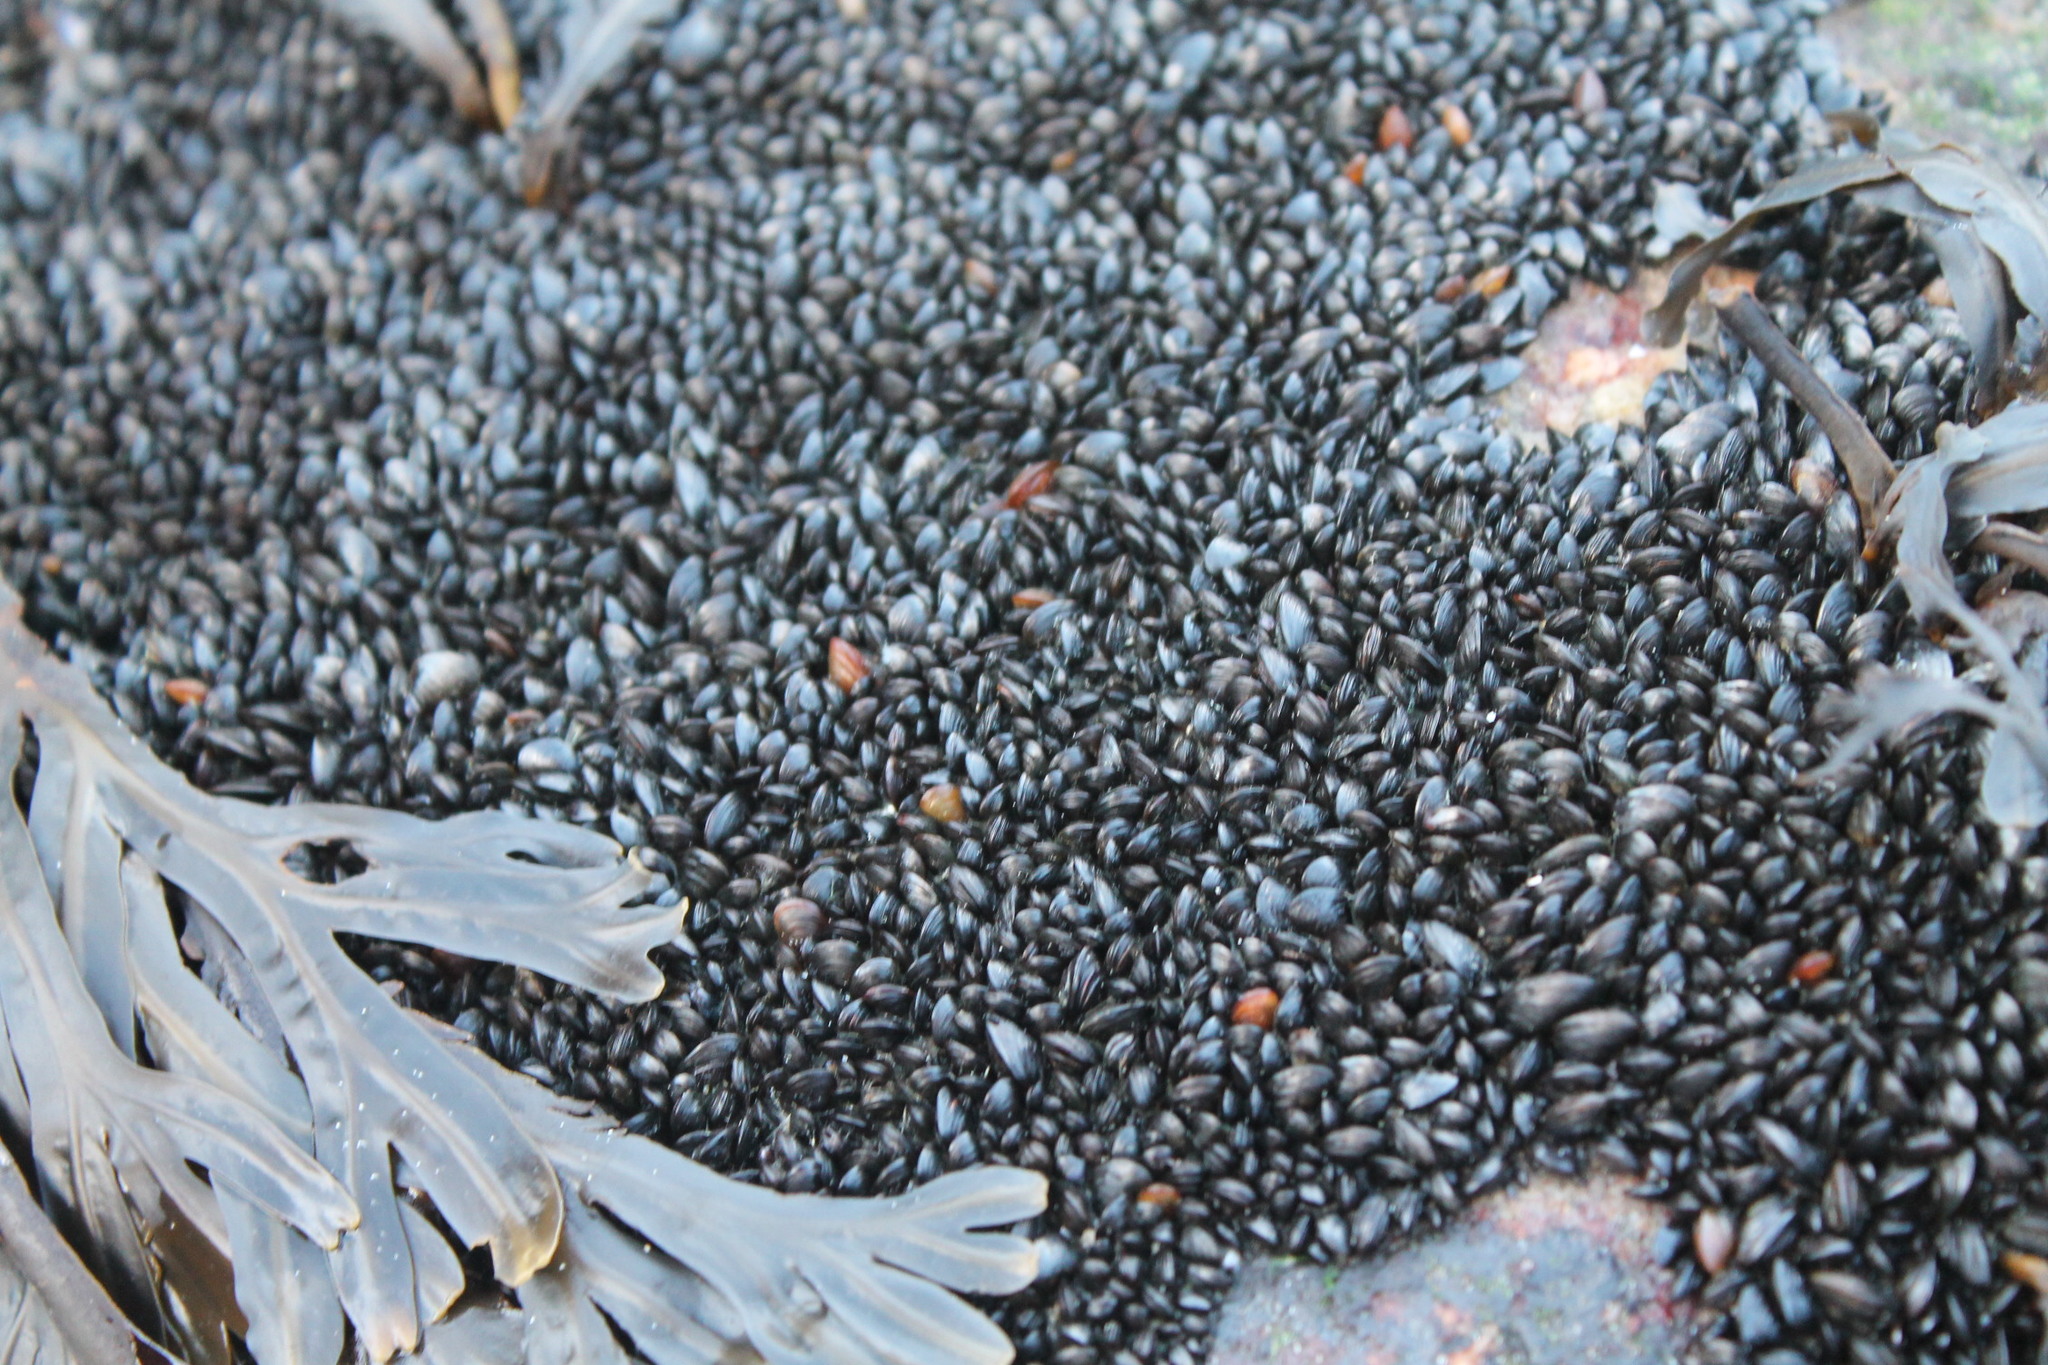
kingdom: Animalia
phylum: Mollusca
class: Bivalvia
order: Mytilida
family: Mytilidae
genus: Mytilus
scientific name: Mytilus edulis
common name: Blue mussel
